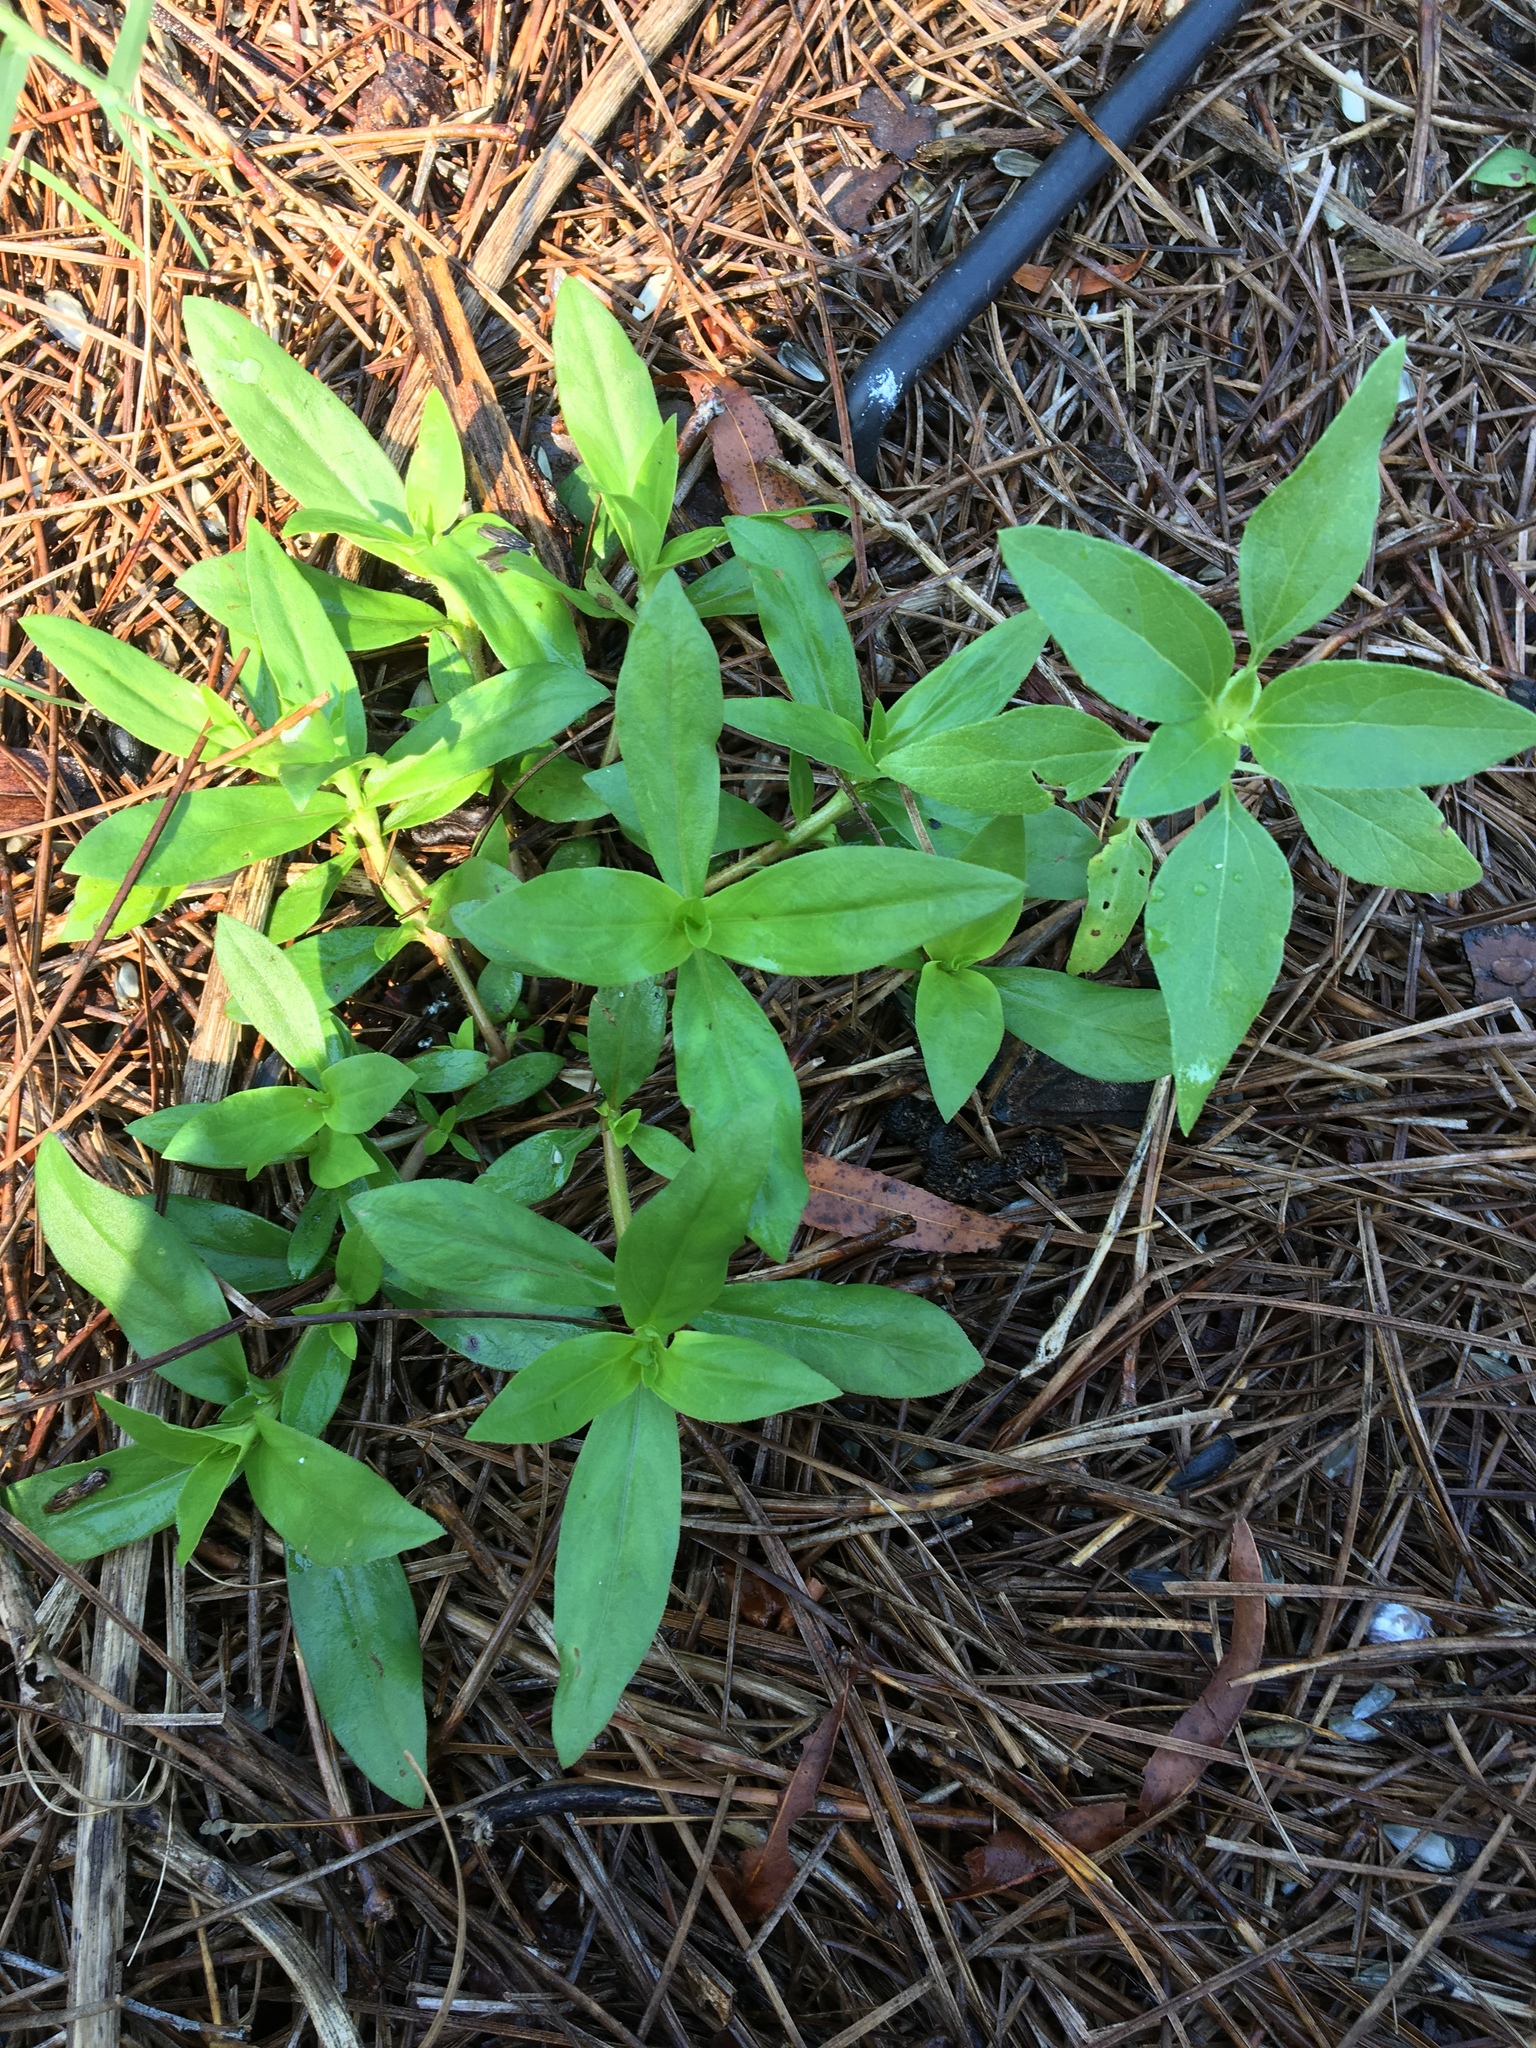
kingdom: Plantae
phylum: Tracheophyta
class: Magnoliopsida
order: Gentianales
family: Rubiaceae
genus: Diodia
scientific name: Diodia virginiana
